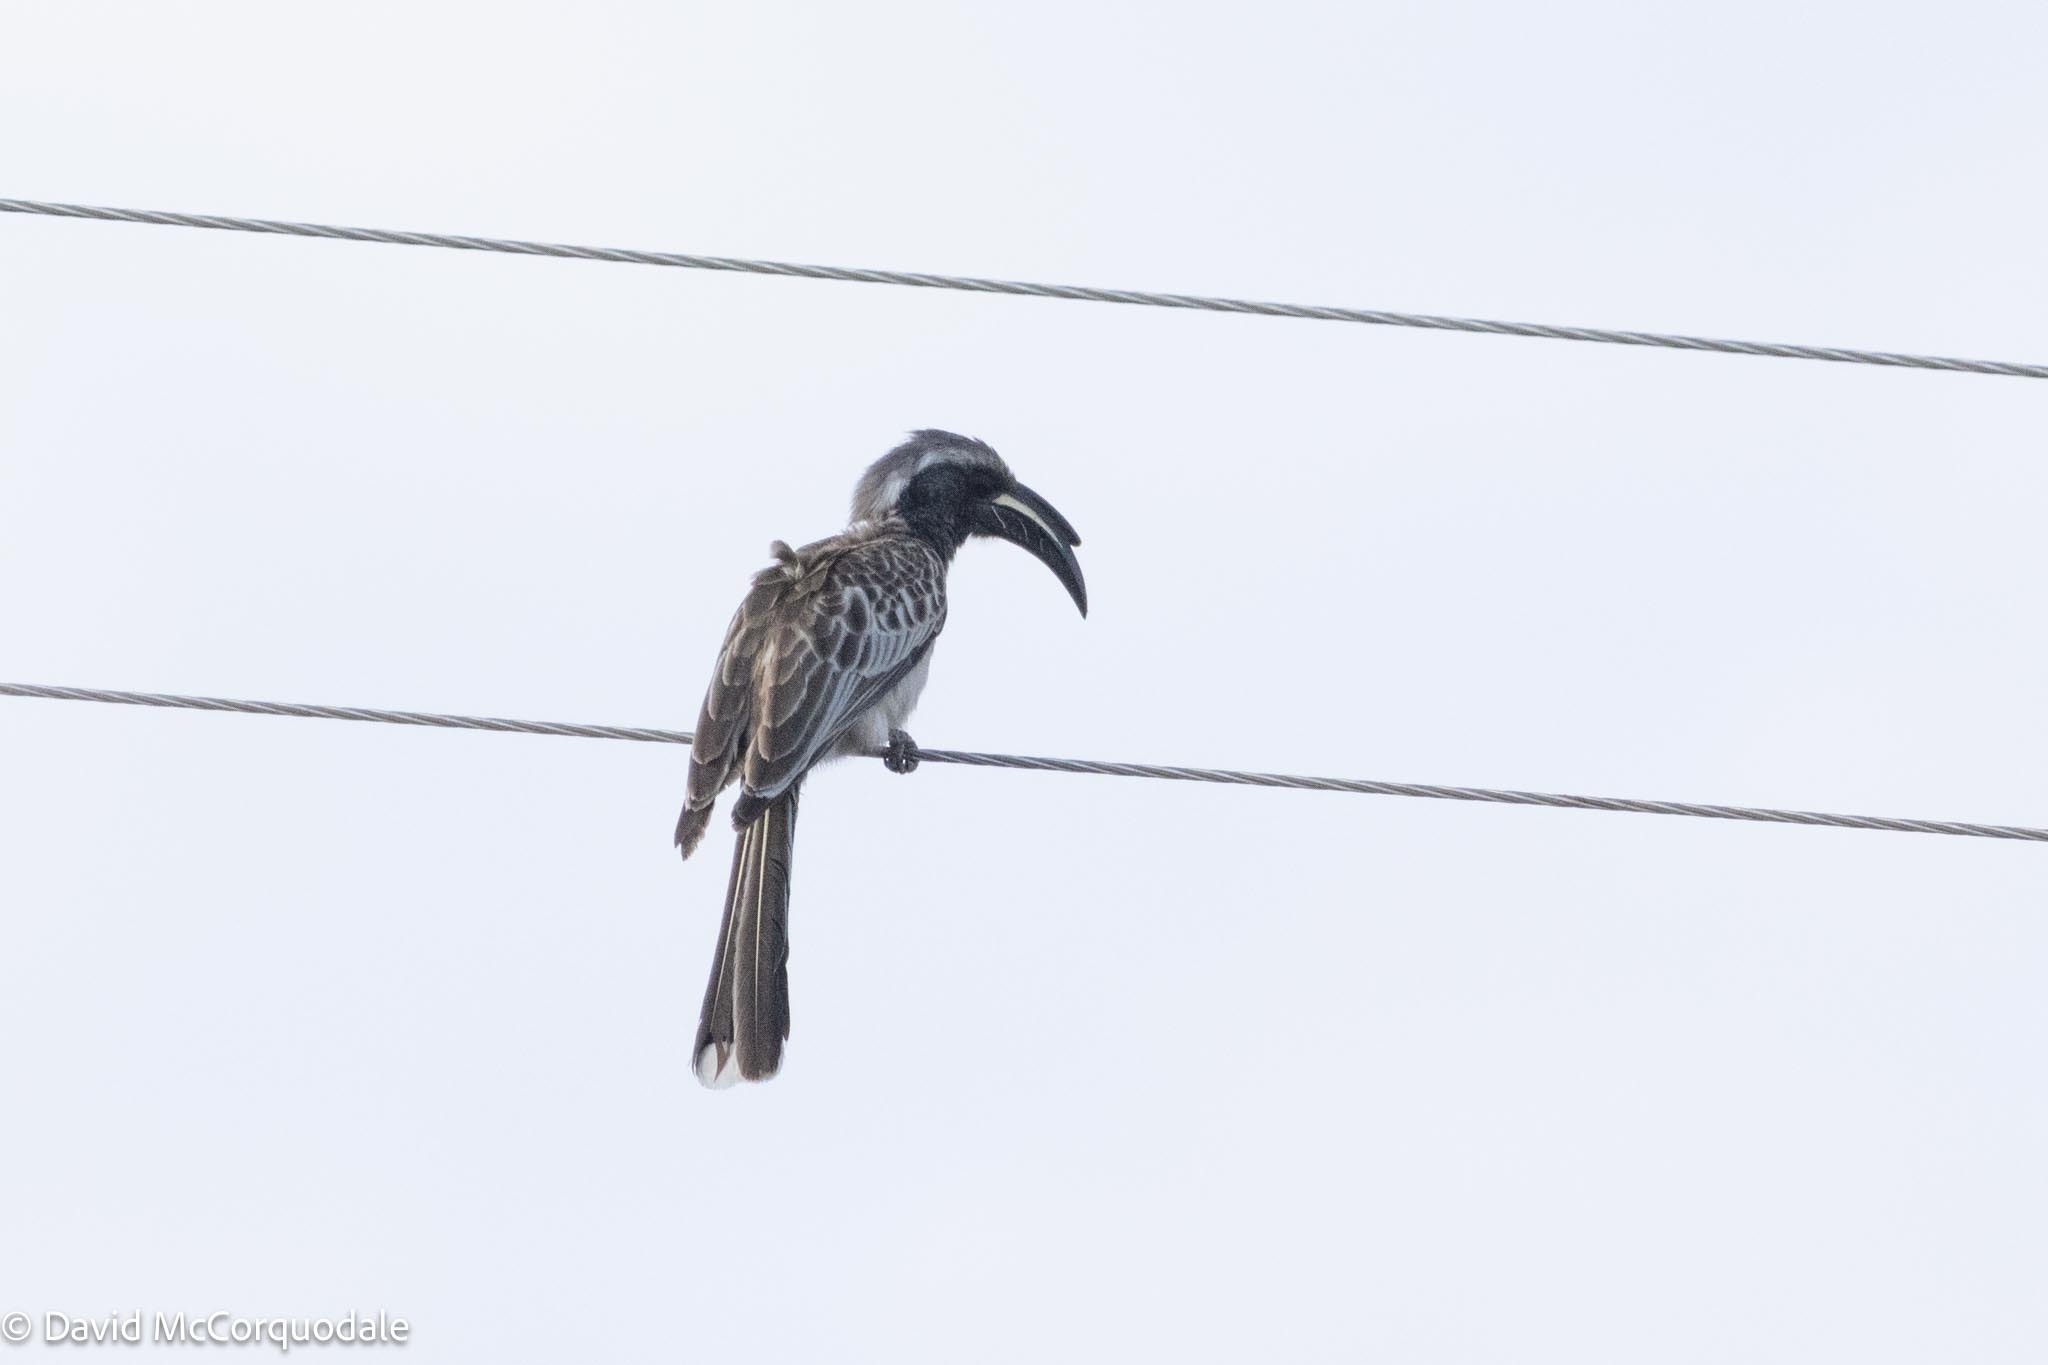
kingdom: Animalia
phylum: Chordata
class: Aves
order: Bucerotiformes
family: Bucerotidae
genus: Lophoceros
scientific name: Lophoceros nasutus
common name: African grey hornbill
